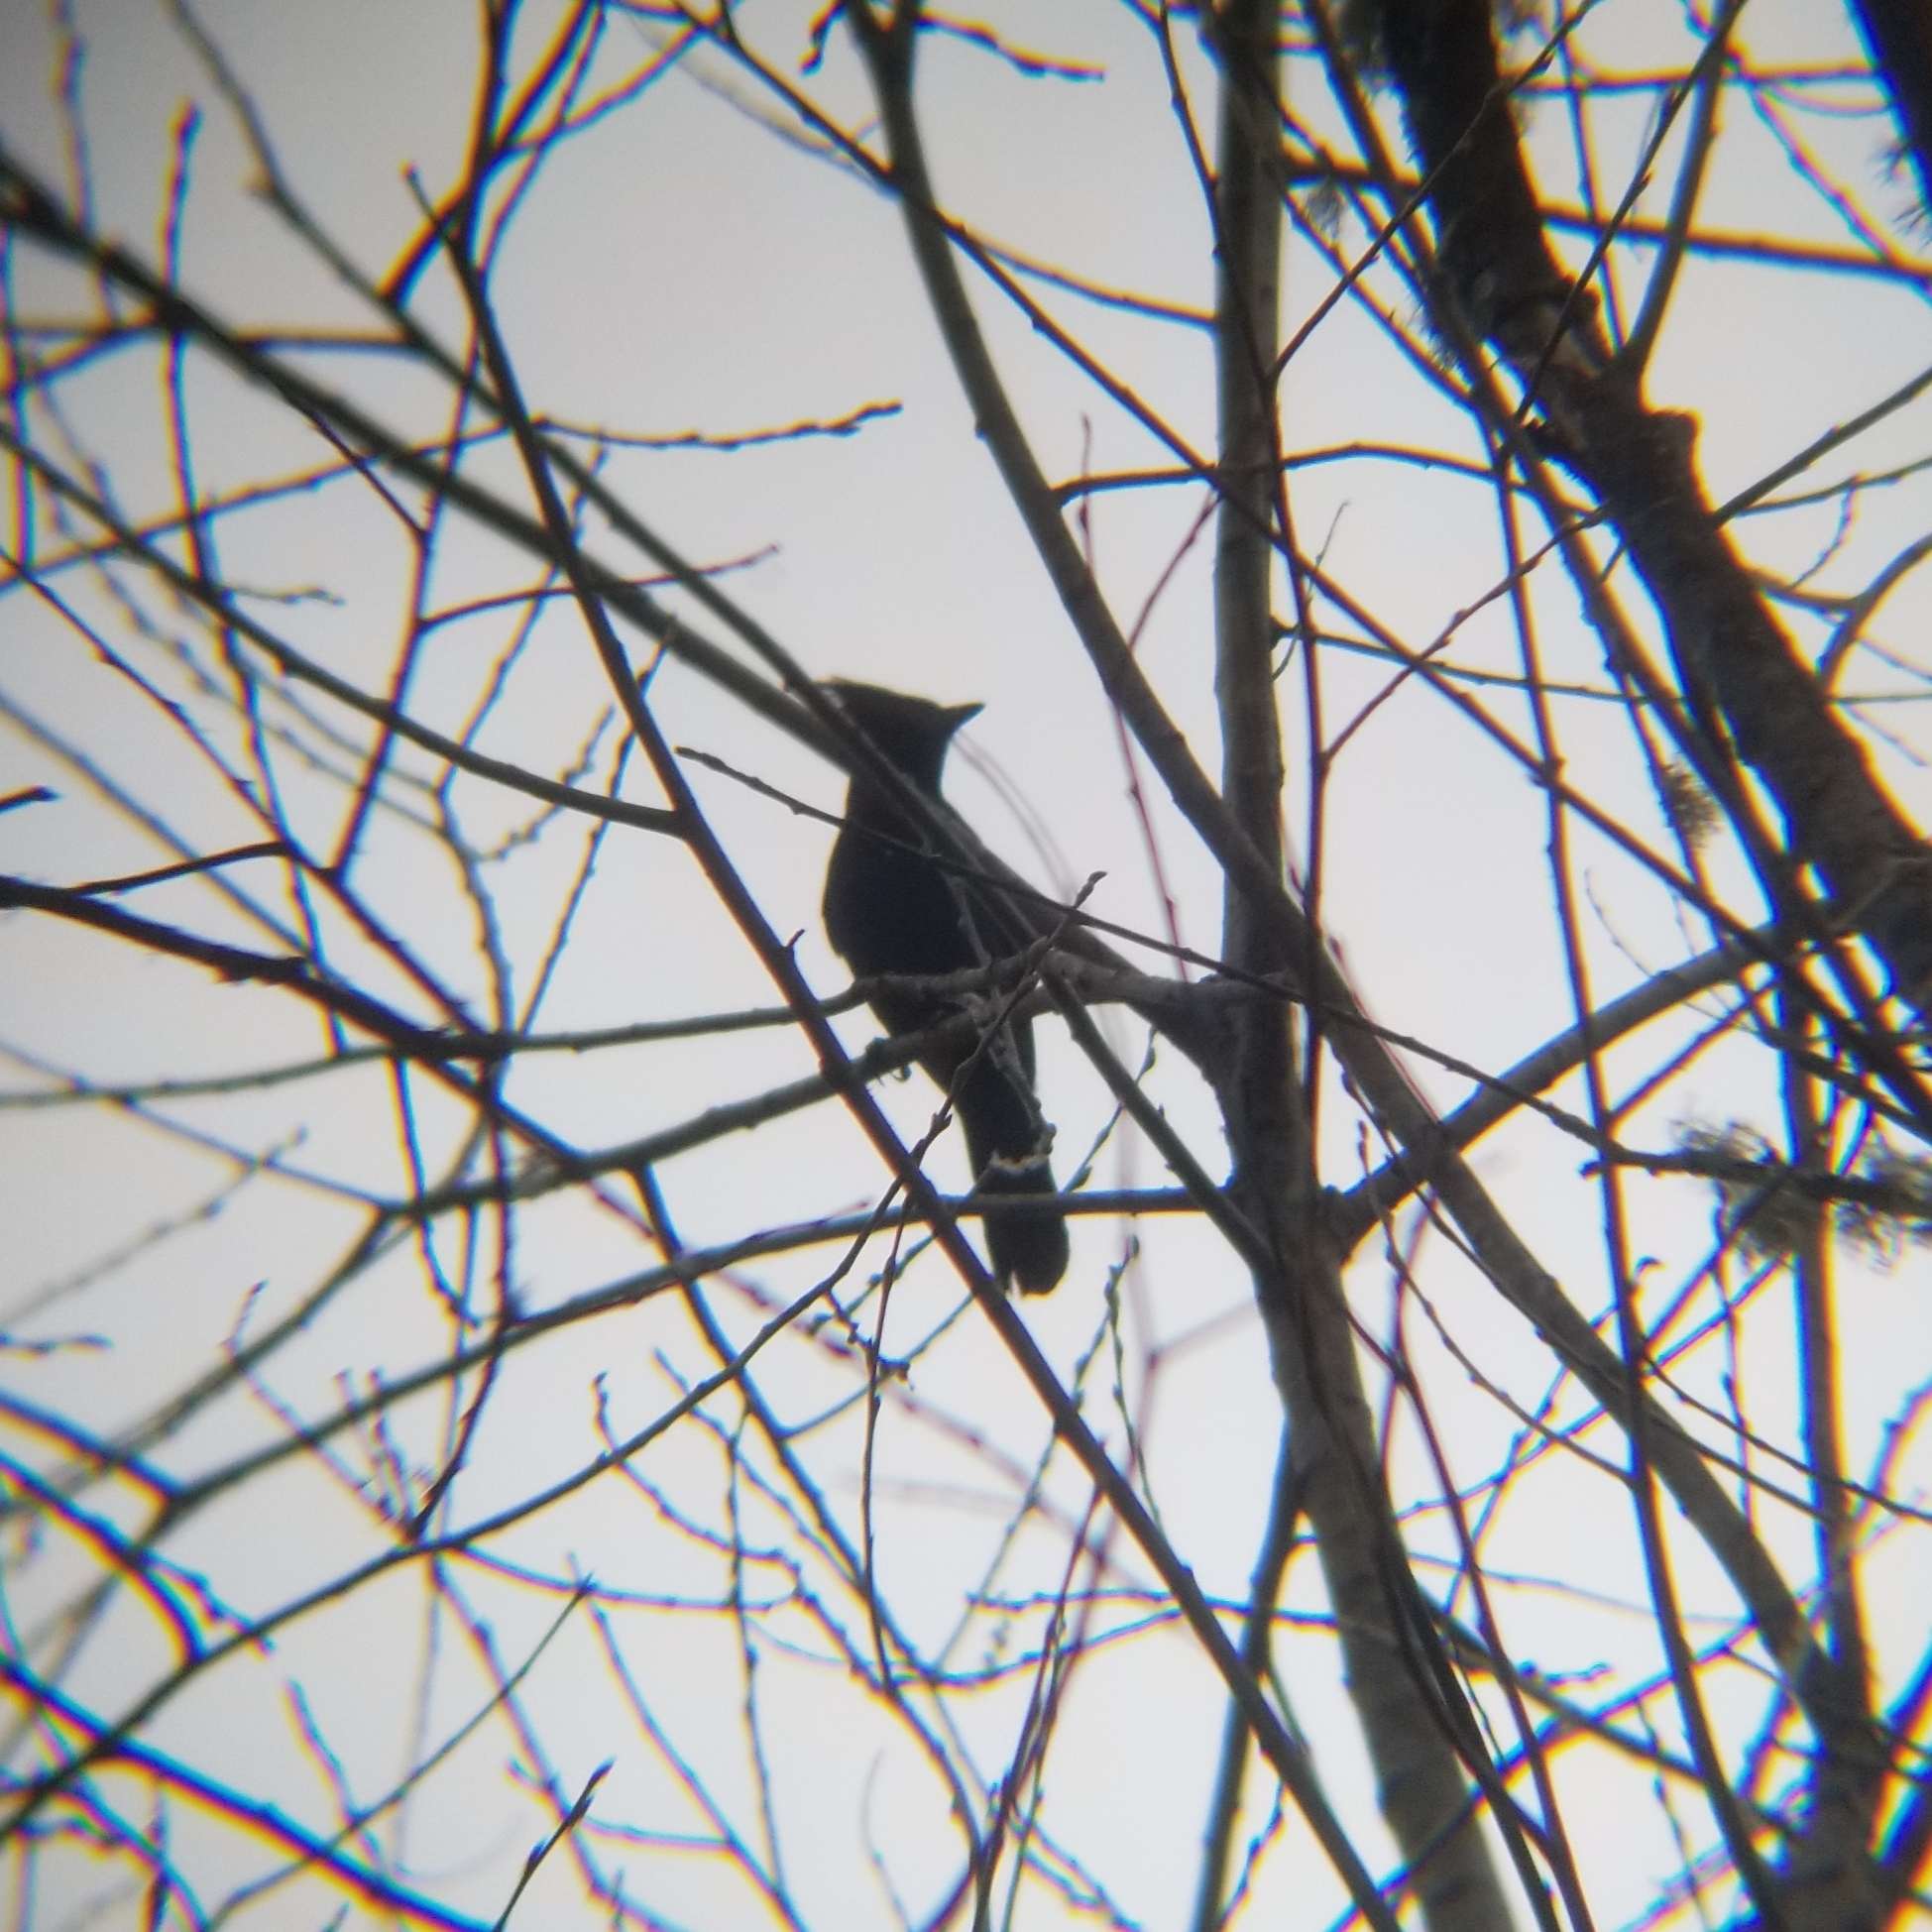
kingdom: Animalia
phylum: Chordata
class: Aves
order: Passeriformes
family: Corvidae
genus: Cyanocitta
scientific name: Cyanocitta stelleri
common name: Steller's jay
